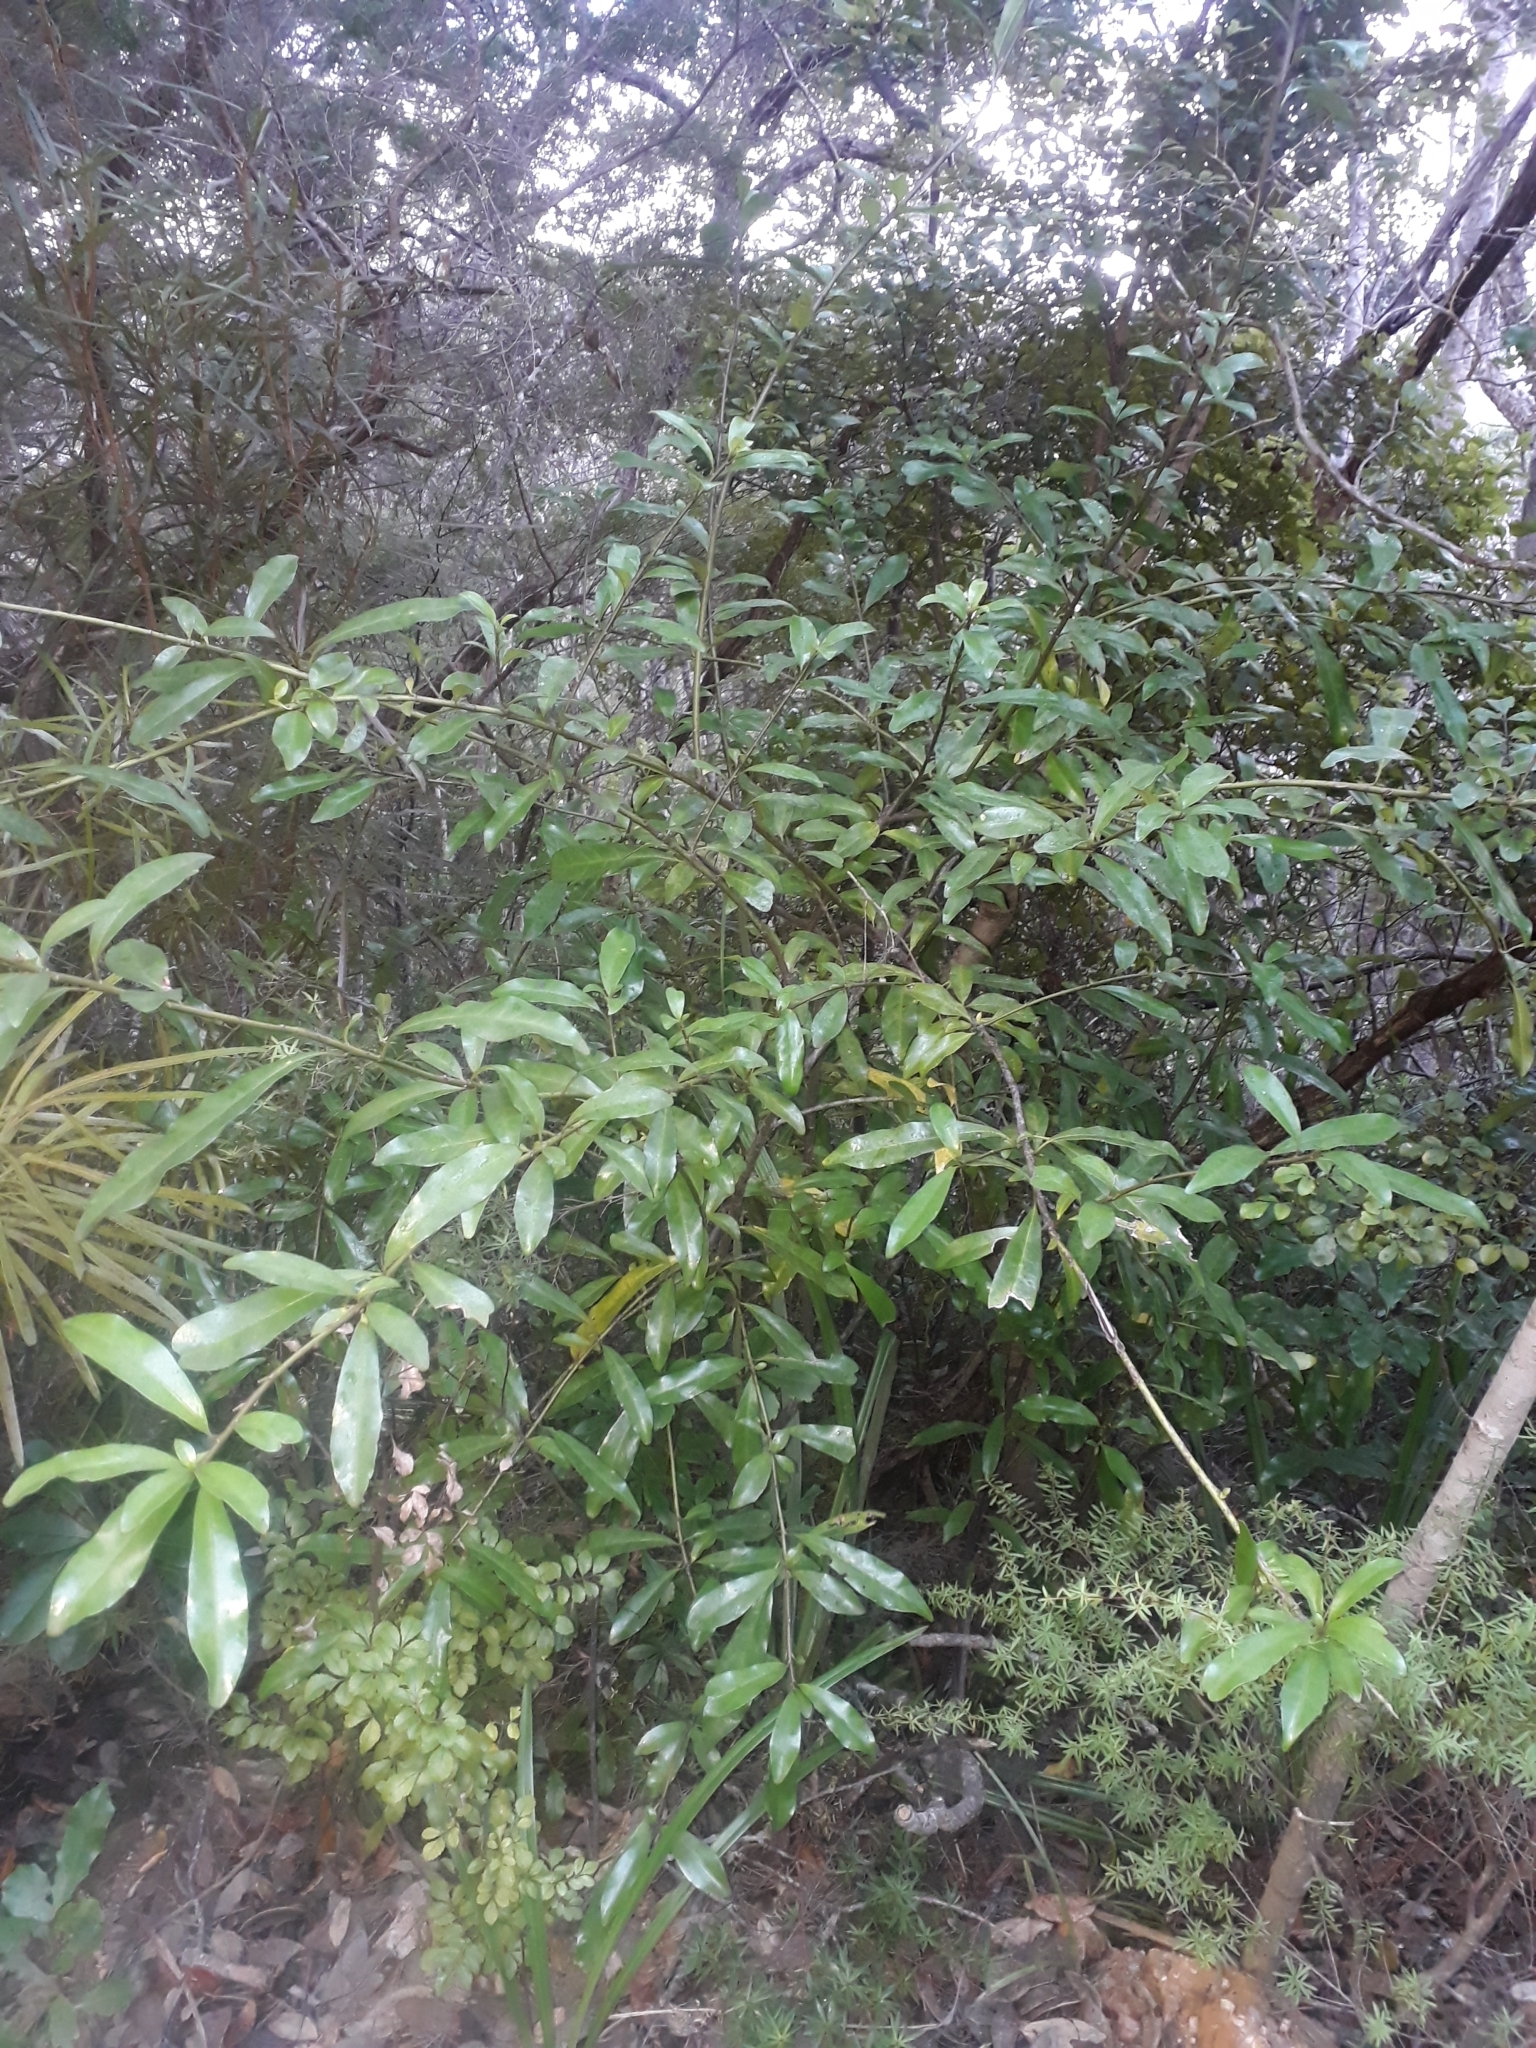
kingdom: Plantae
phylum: Tracheophyta
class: Magnoliopsida
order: Asterales
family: Alseuosmiaceae
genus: Alseuosmia
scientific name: Alseuosmia macrophylla
